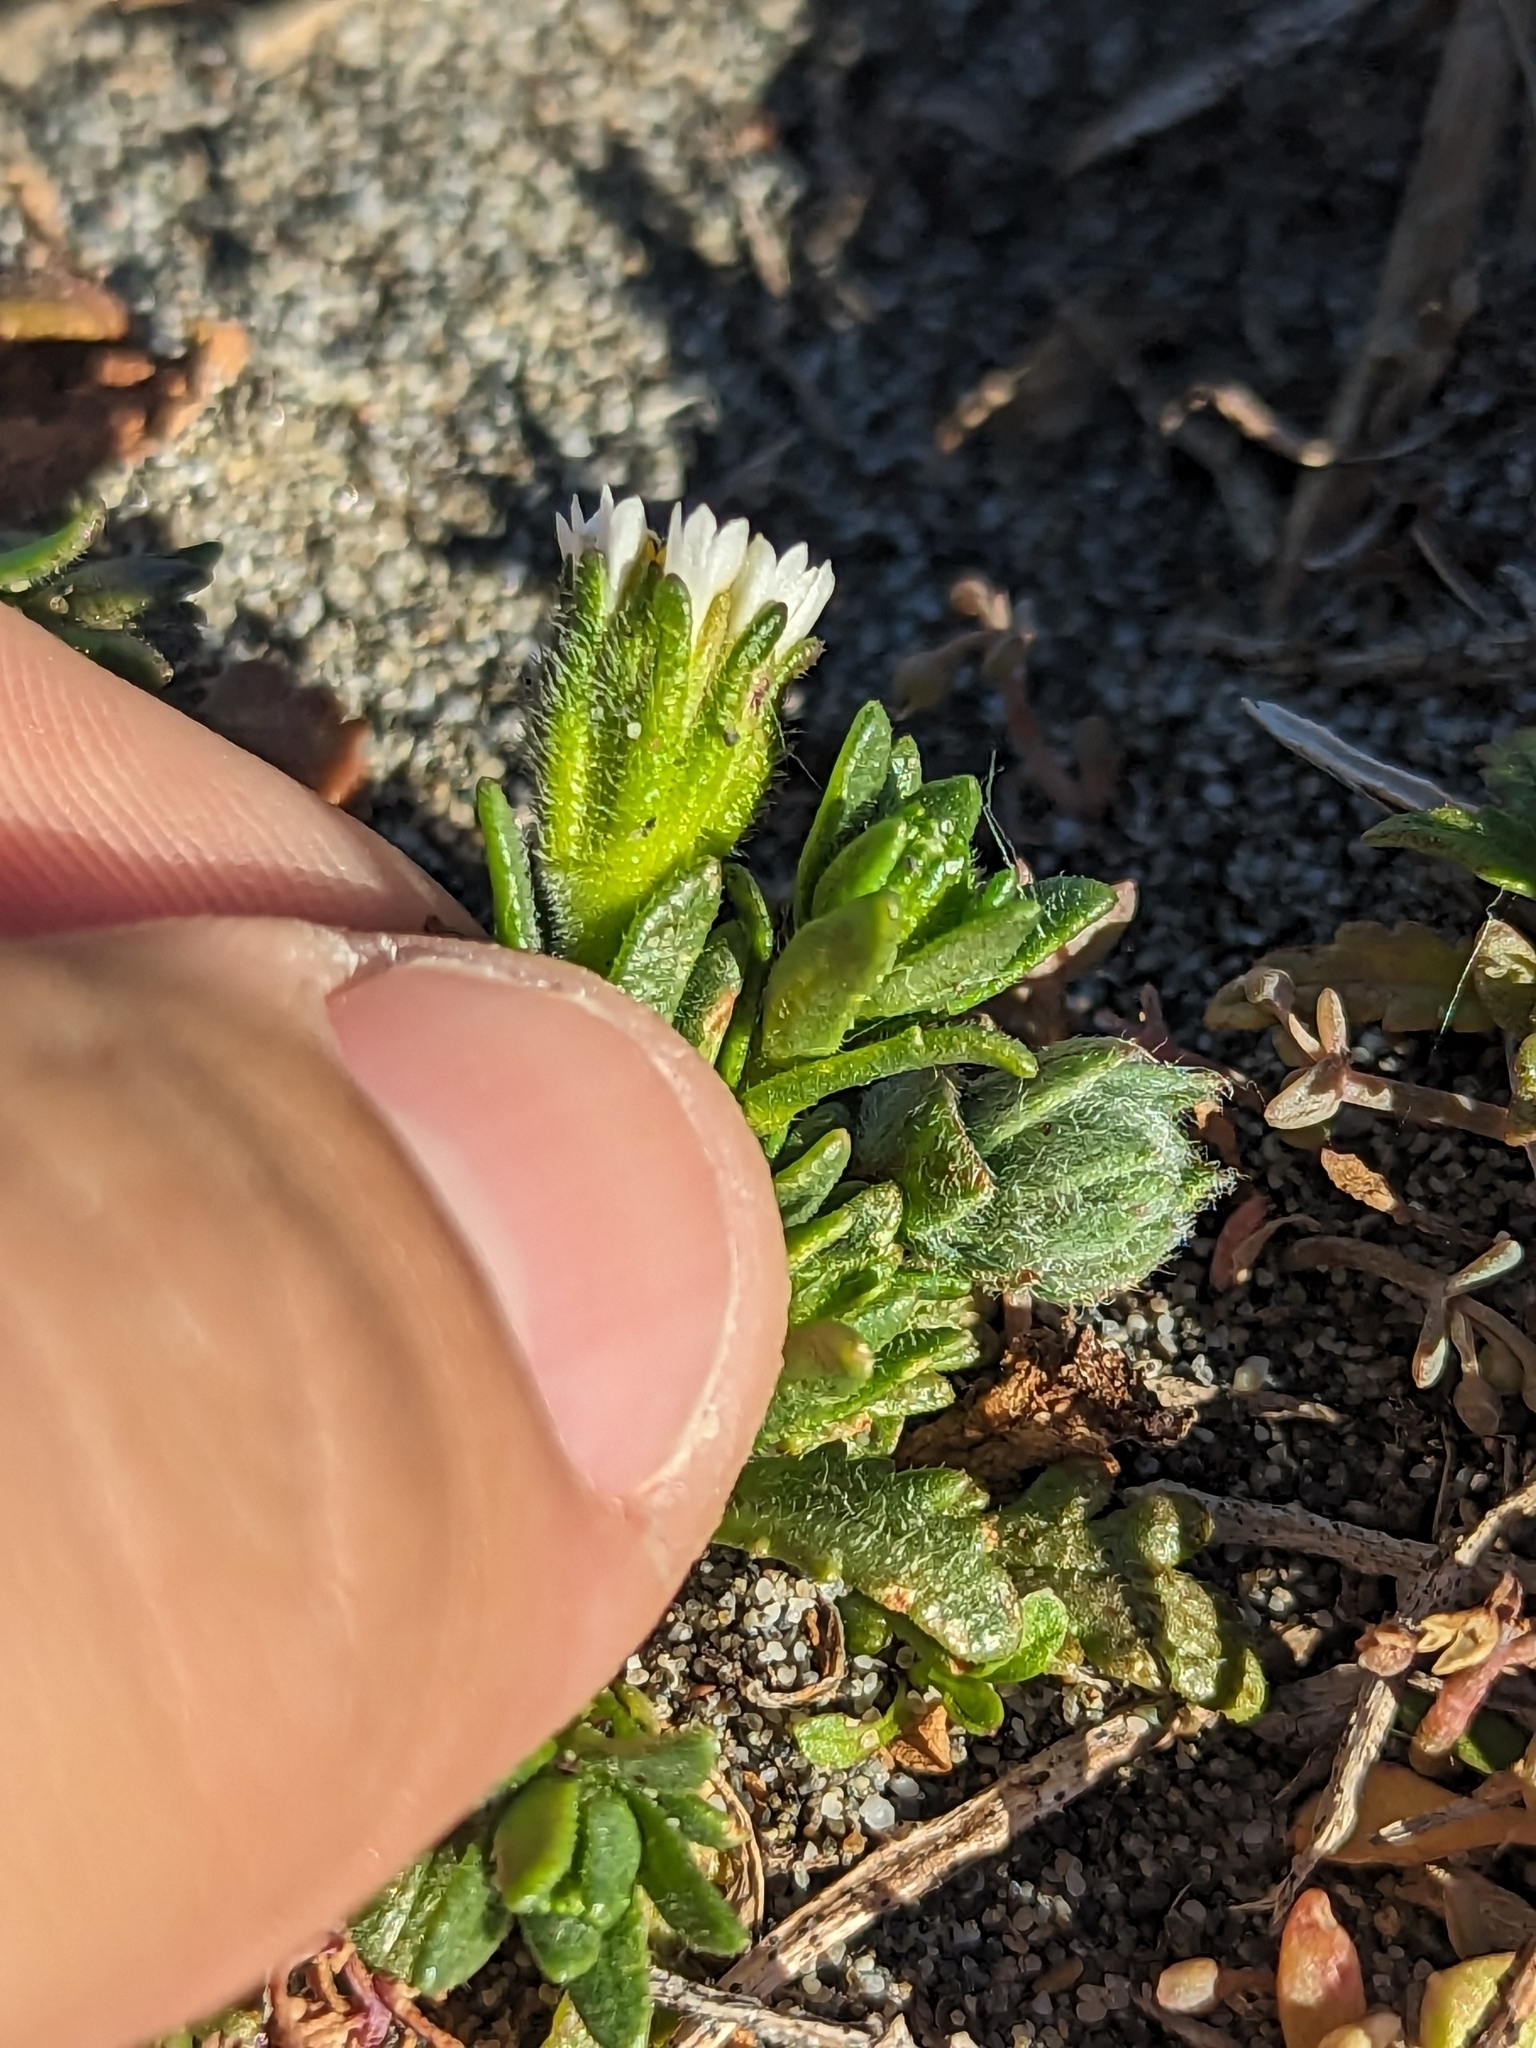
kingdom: Plantae
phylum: Tracheophyta
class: Magnoliopsida
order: Asterales
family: Asteraceae
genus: Layia
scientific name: Layia carnosa
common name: Beach layia
